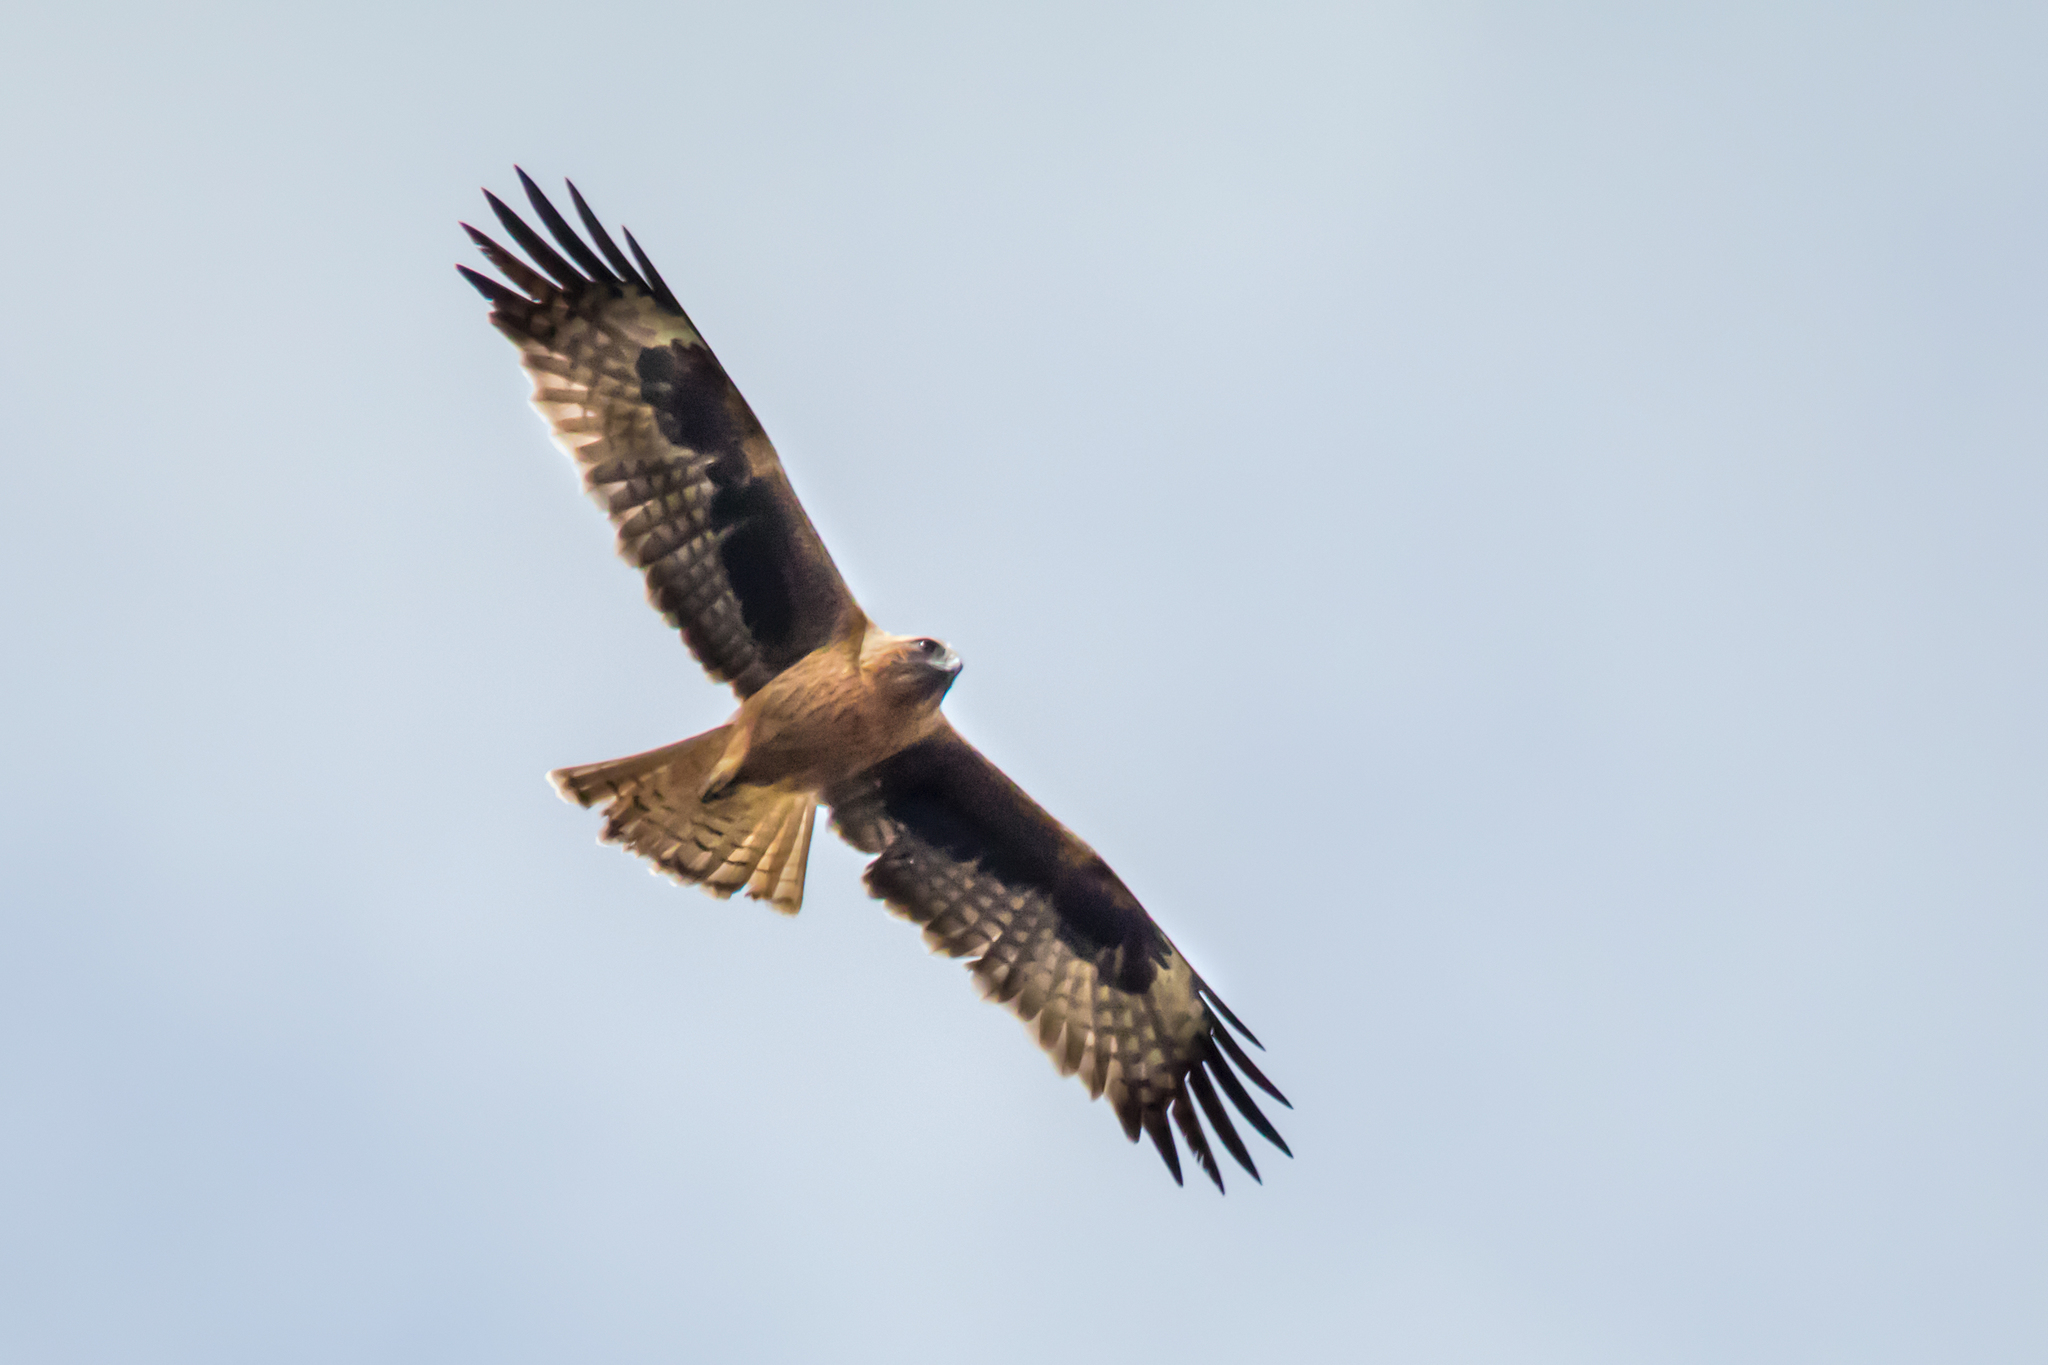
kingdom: Animalia
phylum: Chordata
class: Aves
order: Accipitriformes
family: Accipitridae
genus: Hieraaetus
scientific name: Hieraaetus morphnoides
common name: Little eagle
